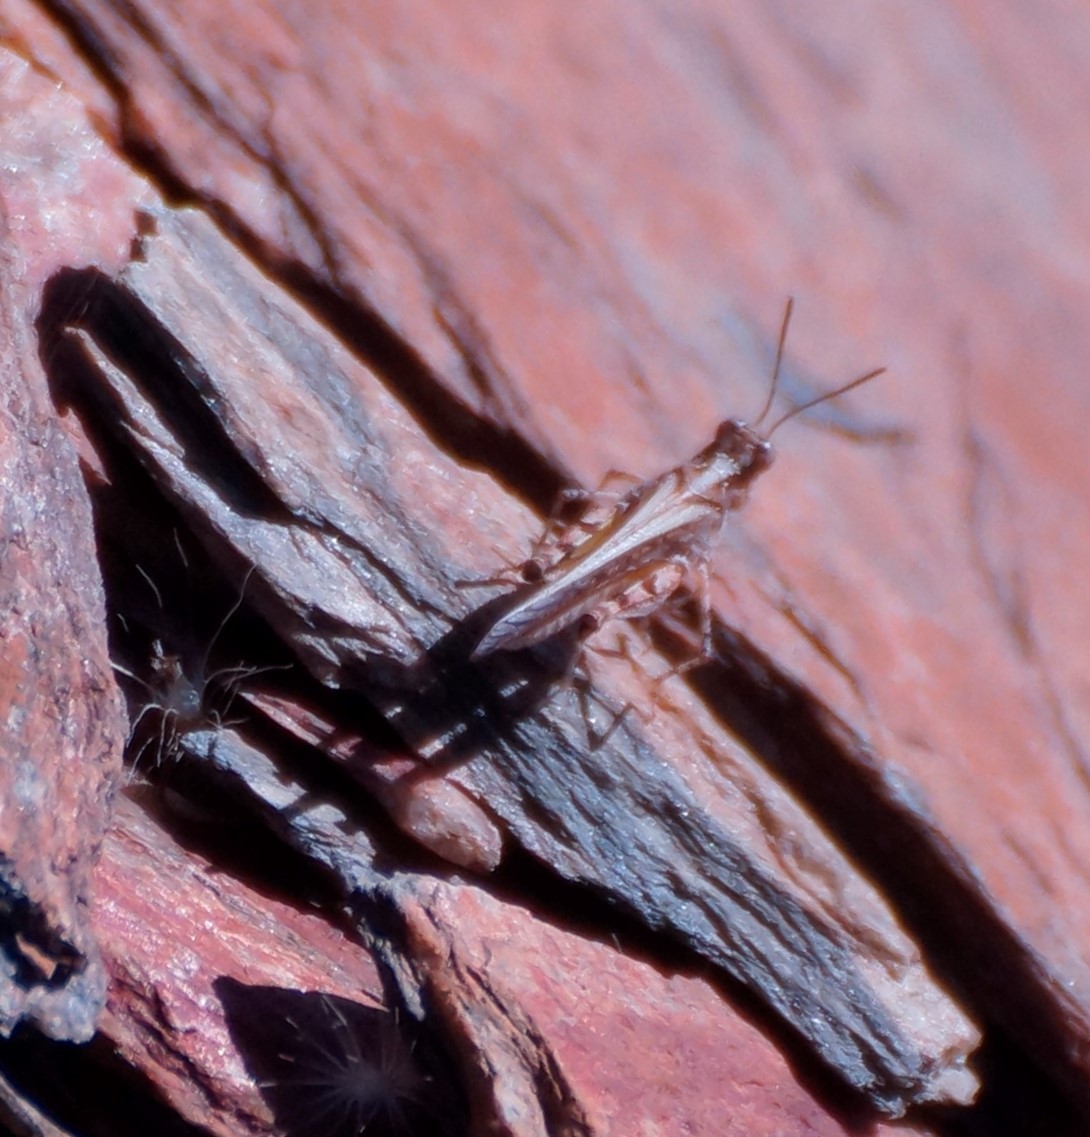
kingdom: Animalia
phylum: Arthropoda
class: Insecta
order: Orthoptera
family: Acrididae
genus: Pycnostictus
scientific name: Pycnostictus seriatus
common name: Common bandwing
